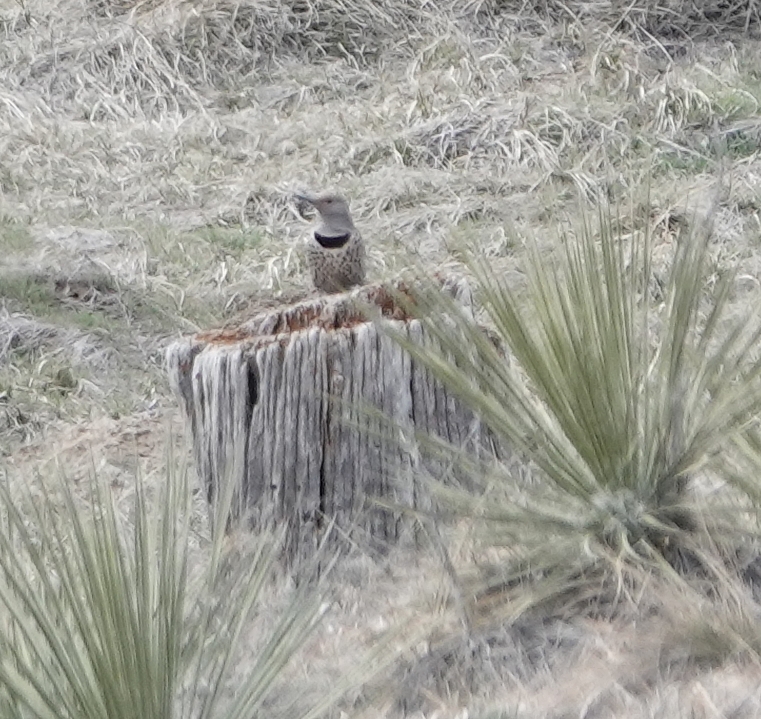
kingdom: Animalia
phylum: Chordata
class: Aves
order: Piciformes
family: Picidae
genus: Colaptes
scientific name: Colaptes auratus
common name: Northern flicker
